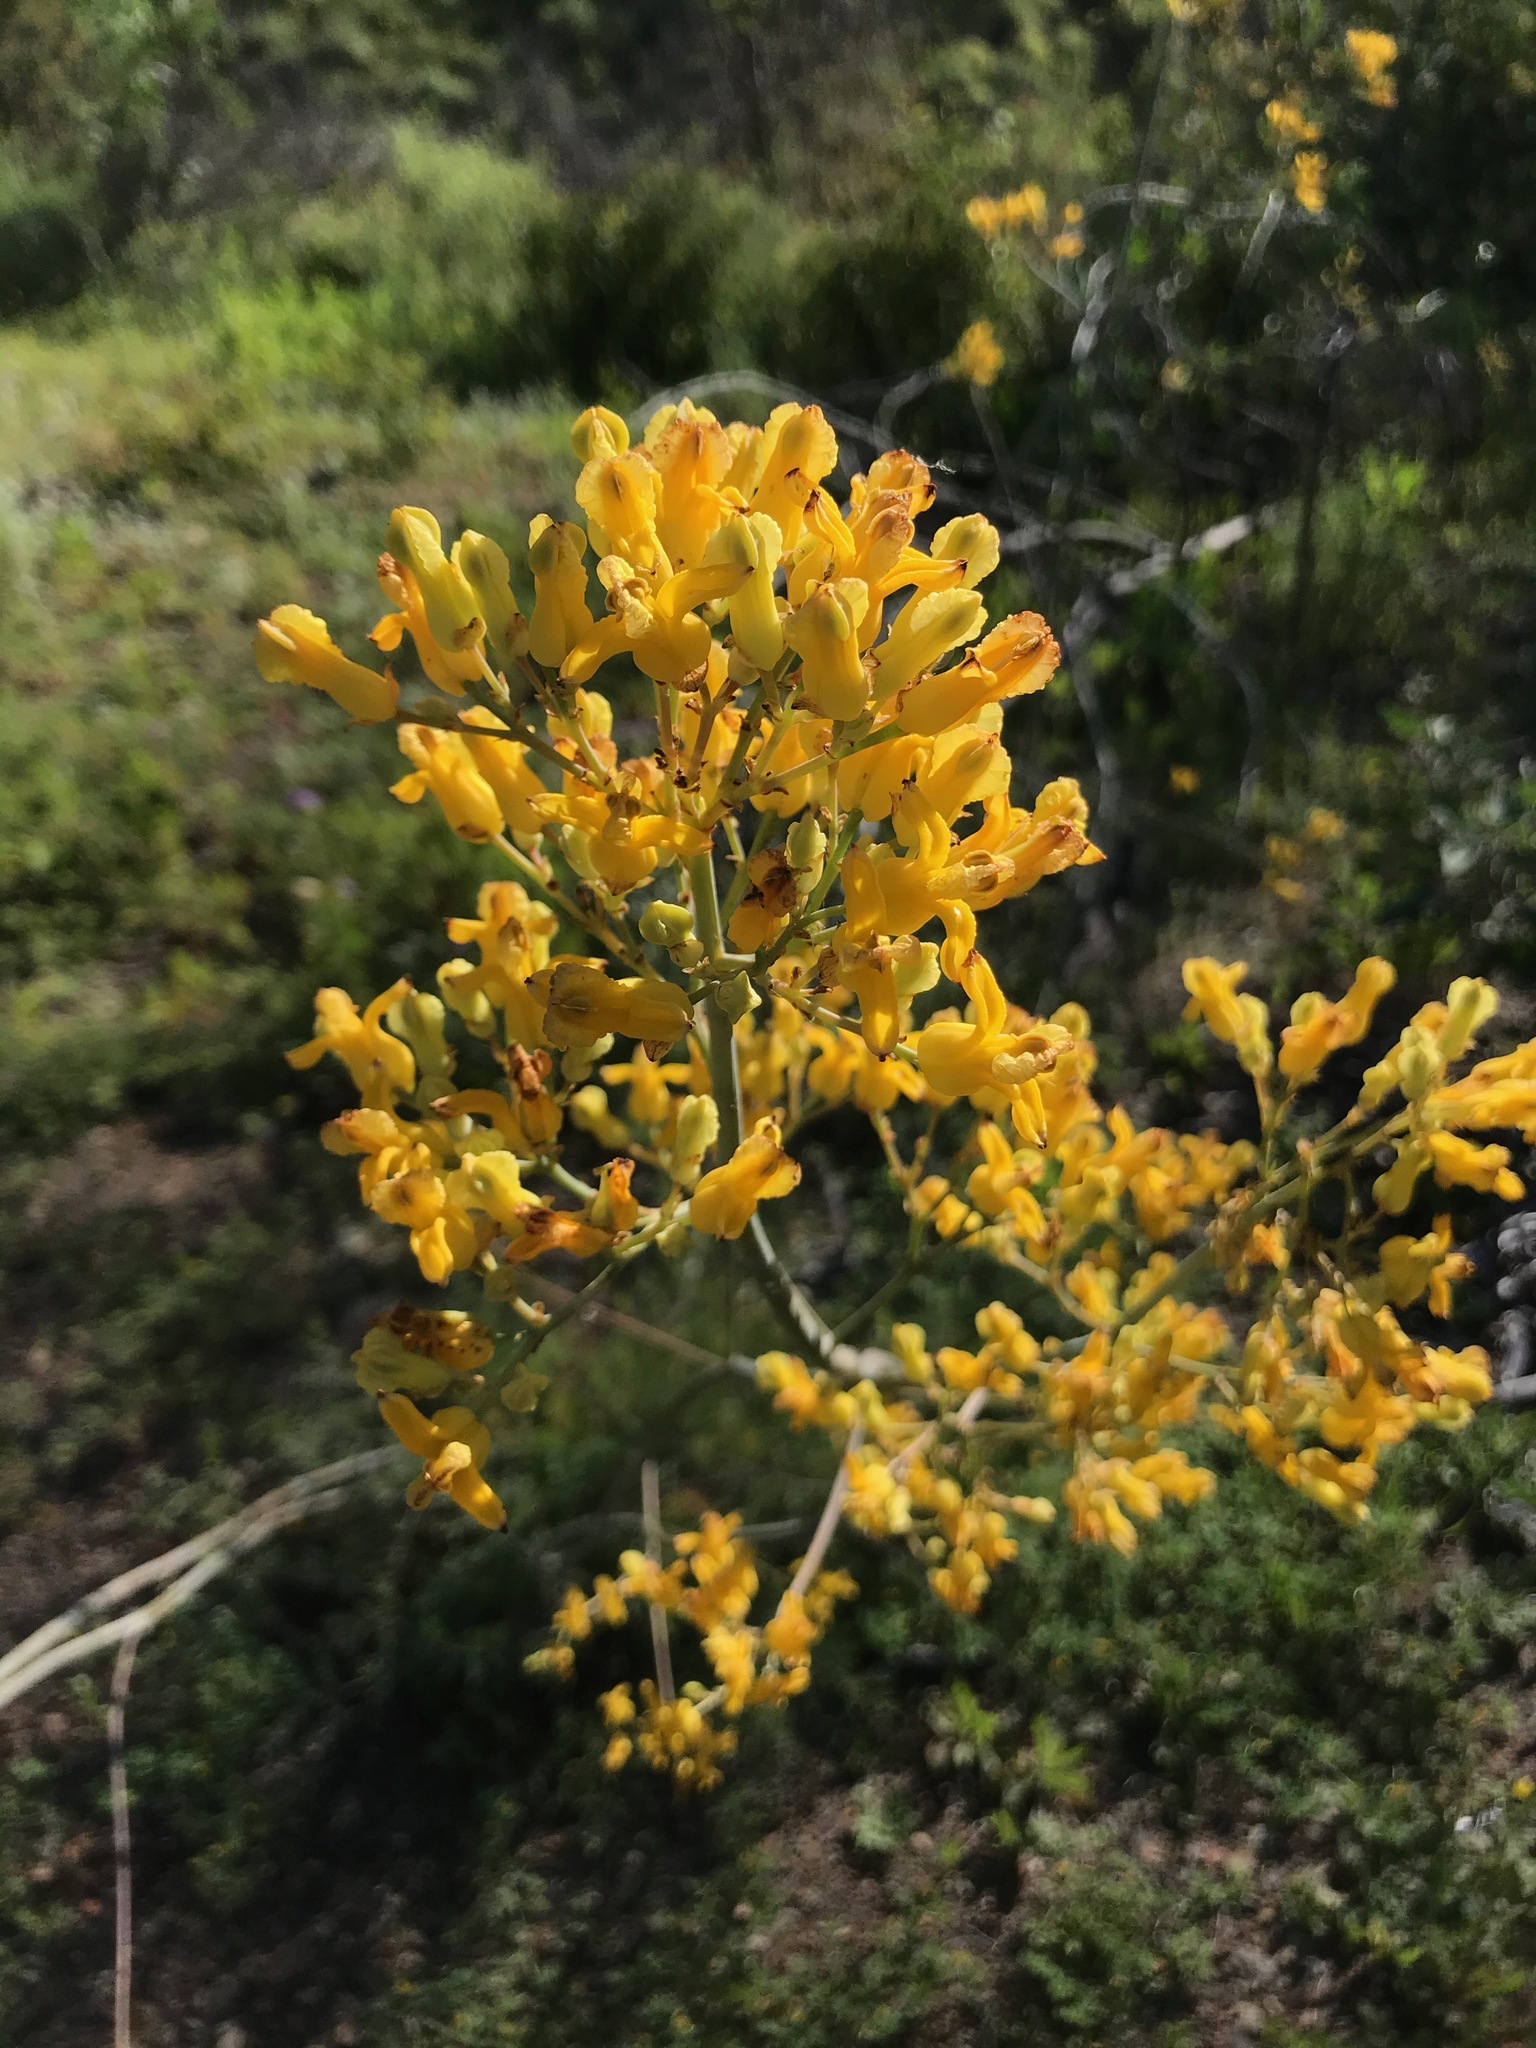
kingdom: Plantae
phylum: Tracheophyta
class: Magnoliopsida
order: Ranunculales
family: Papaveraceae
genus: Ehrendorferia
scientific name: Ehrendorferia chrysantha
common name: Golden eardrops
